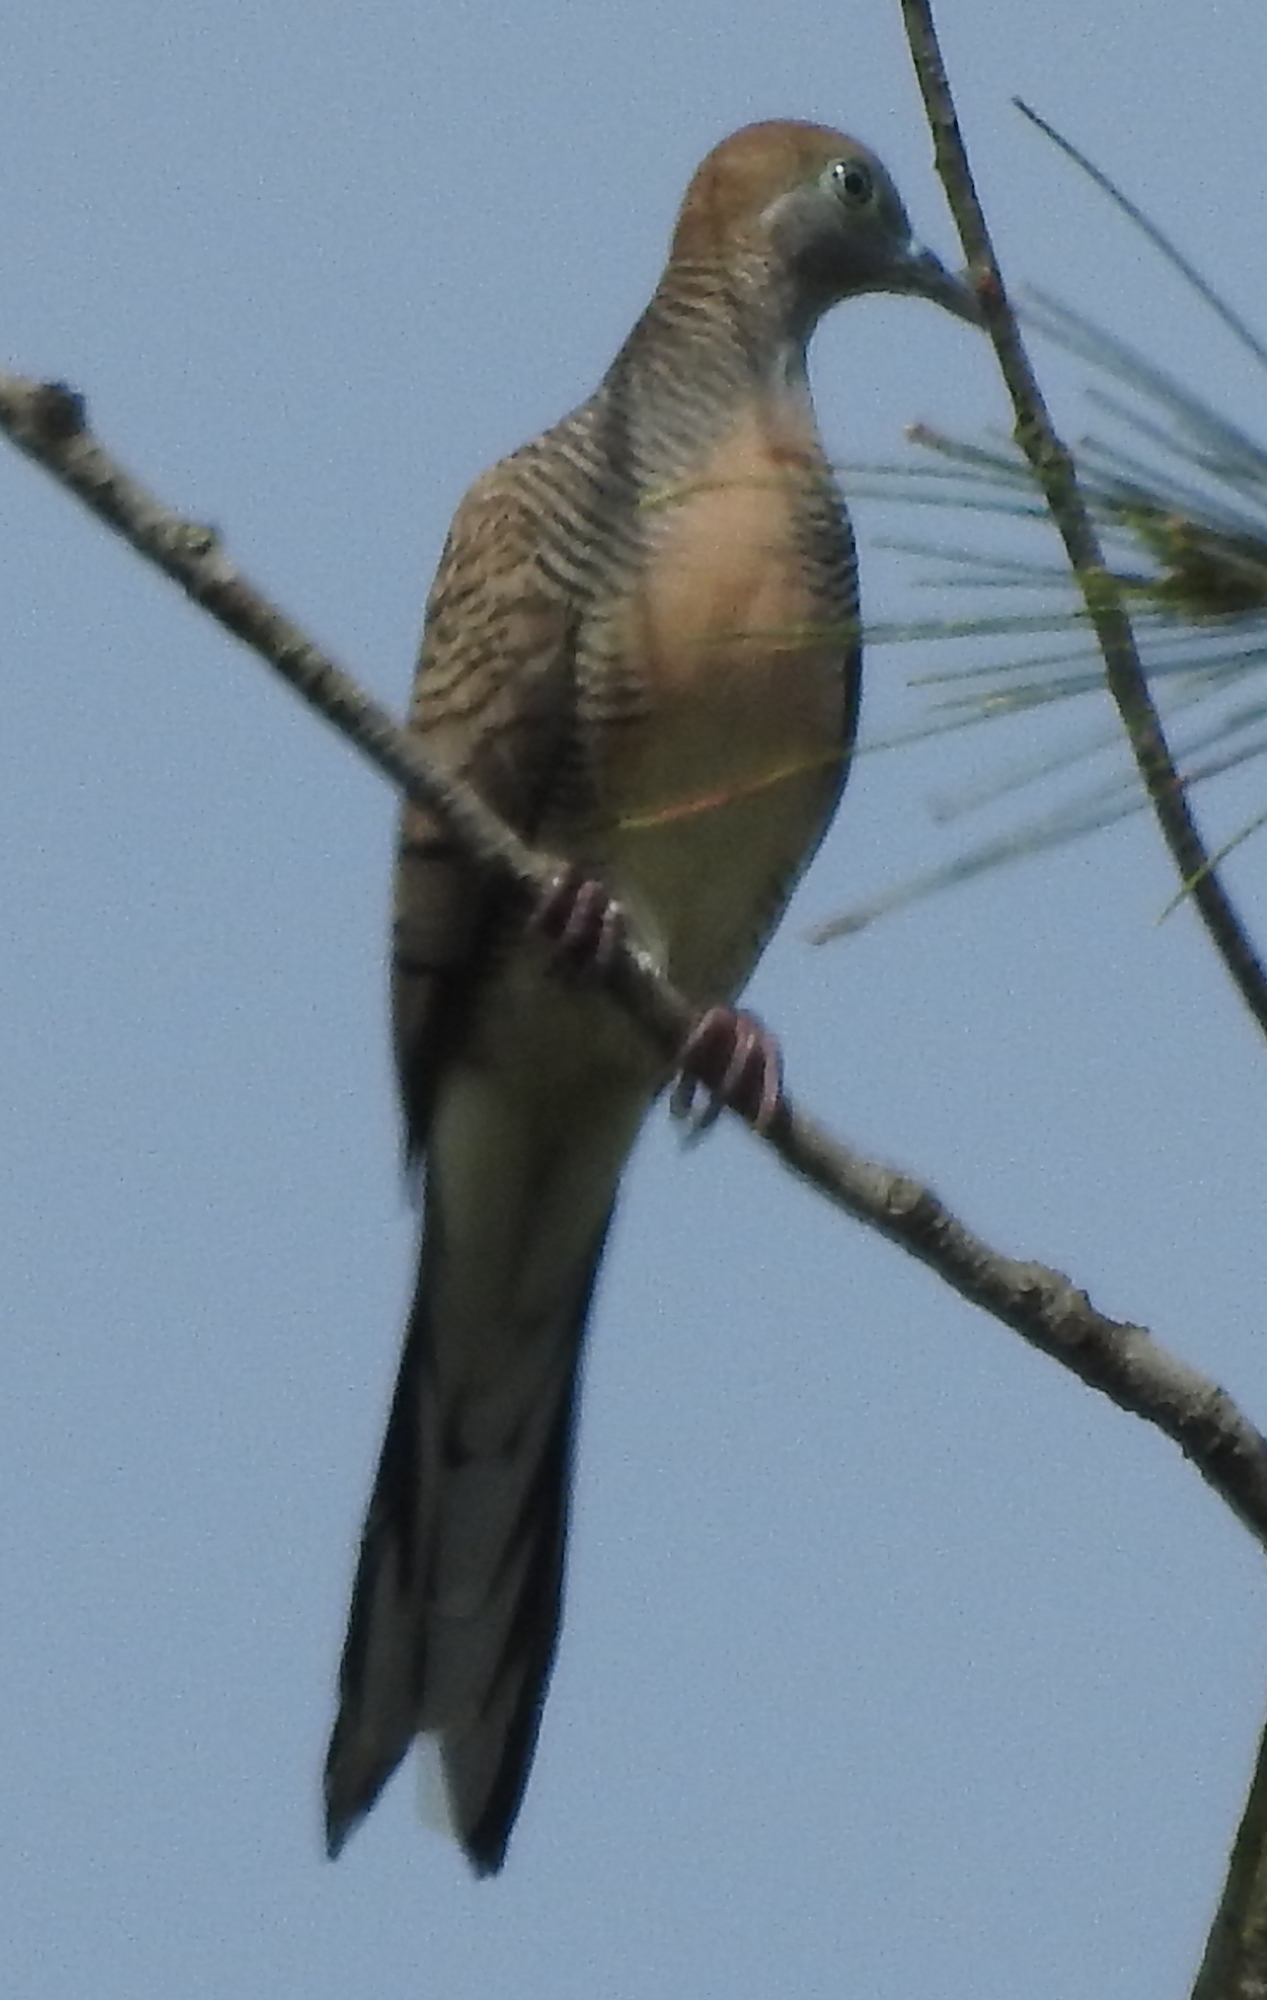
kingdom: Animalia
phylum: Chordata
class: Aves
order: Columbiformes
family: Columbidae
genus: Geopelia
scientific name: Geopelia striata
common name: Zebra dove
